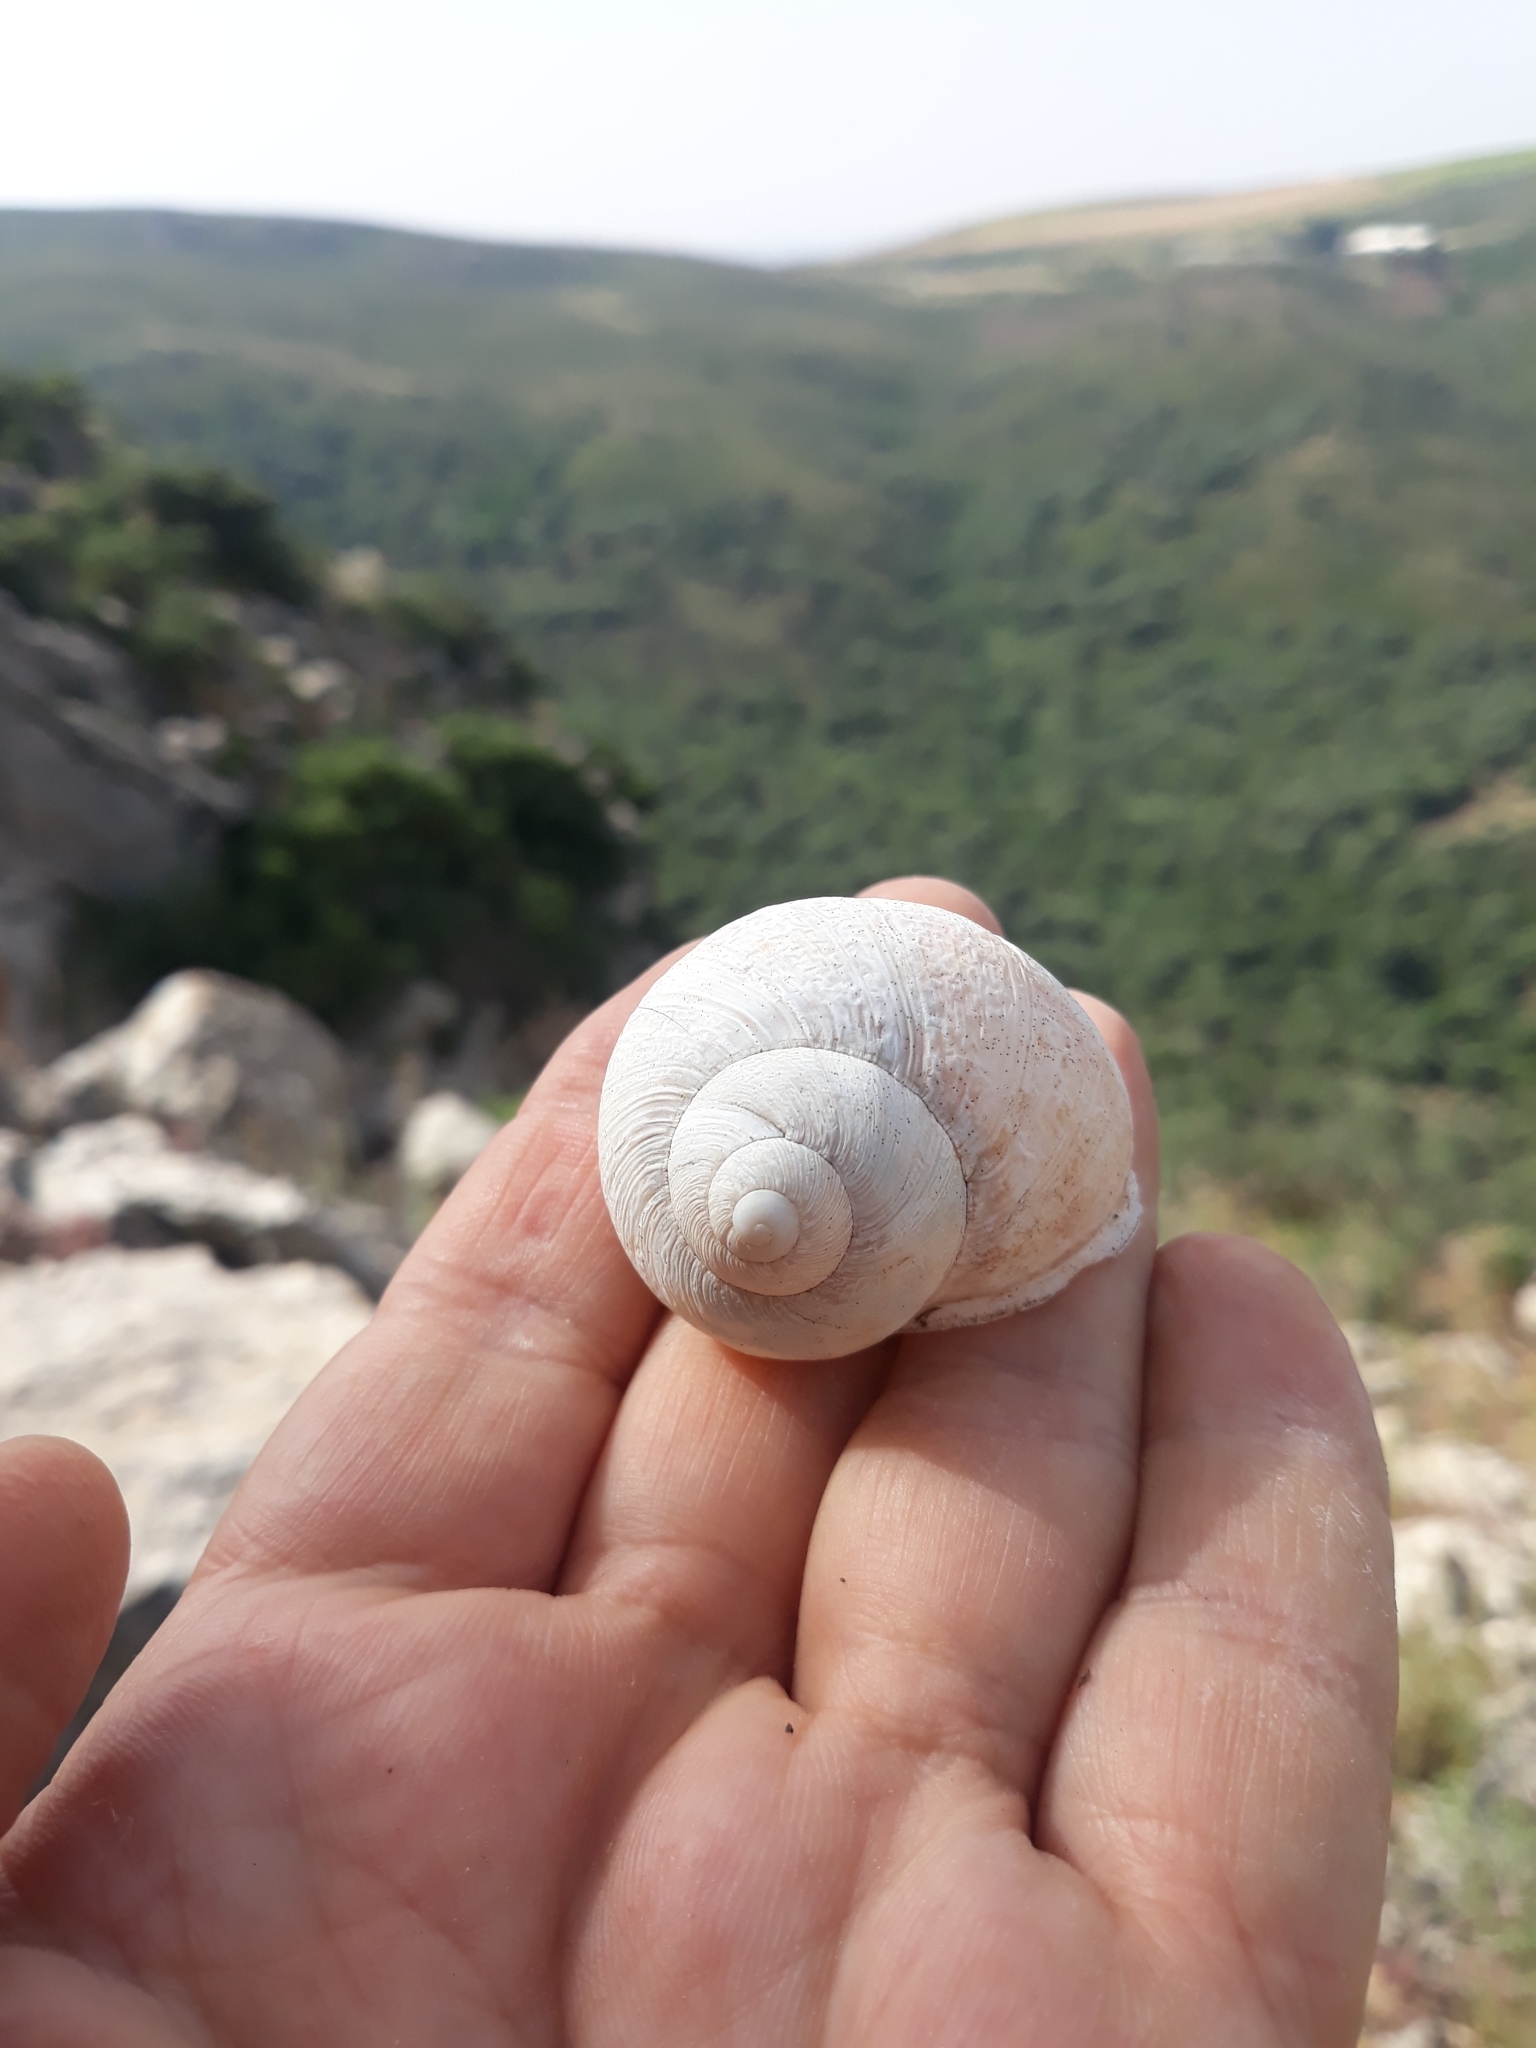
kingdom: Animalia
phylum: Mollusca
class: Gastropoda
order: Stylommatophora
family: Helicidae
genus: Cornu
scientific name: Cornu aspersum
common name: Brown garden snail
